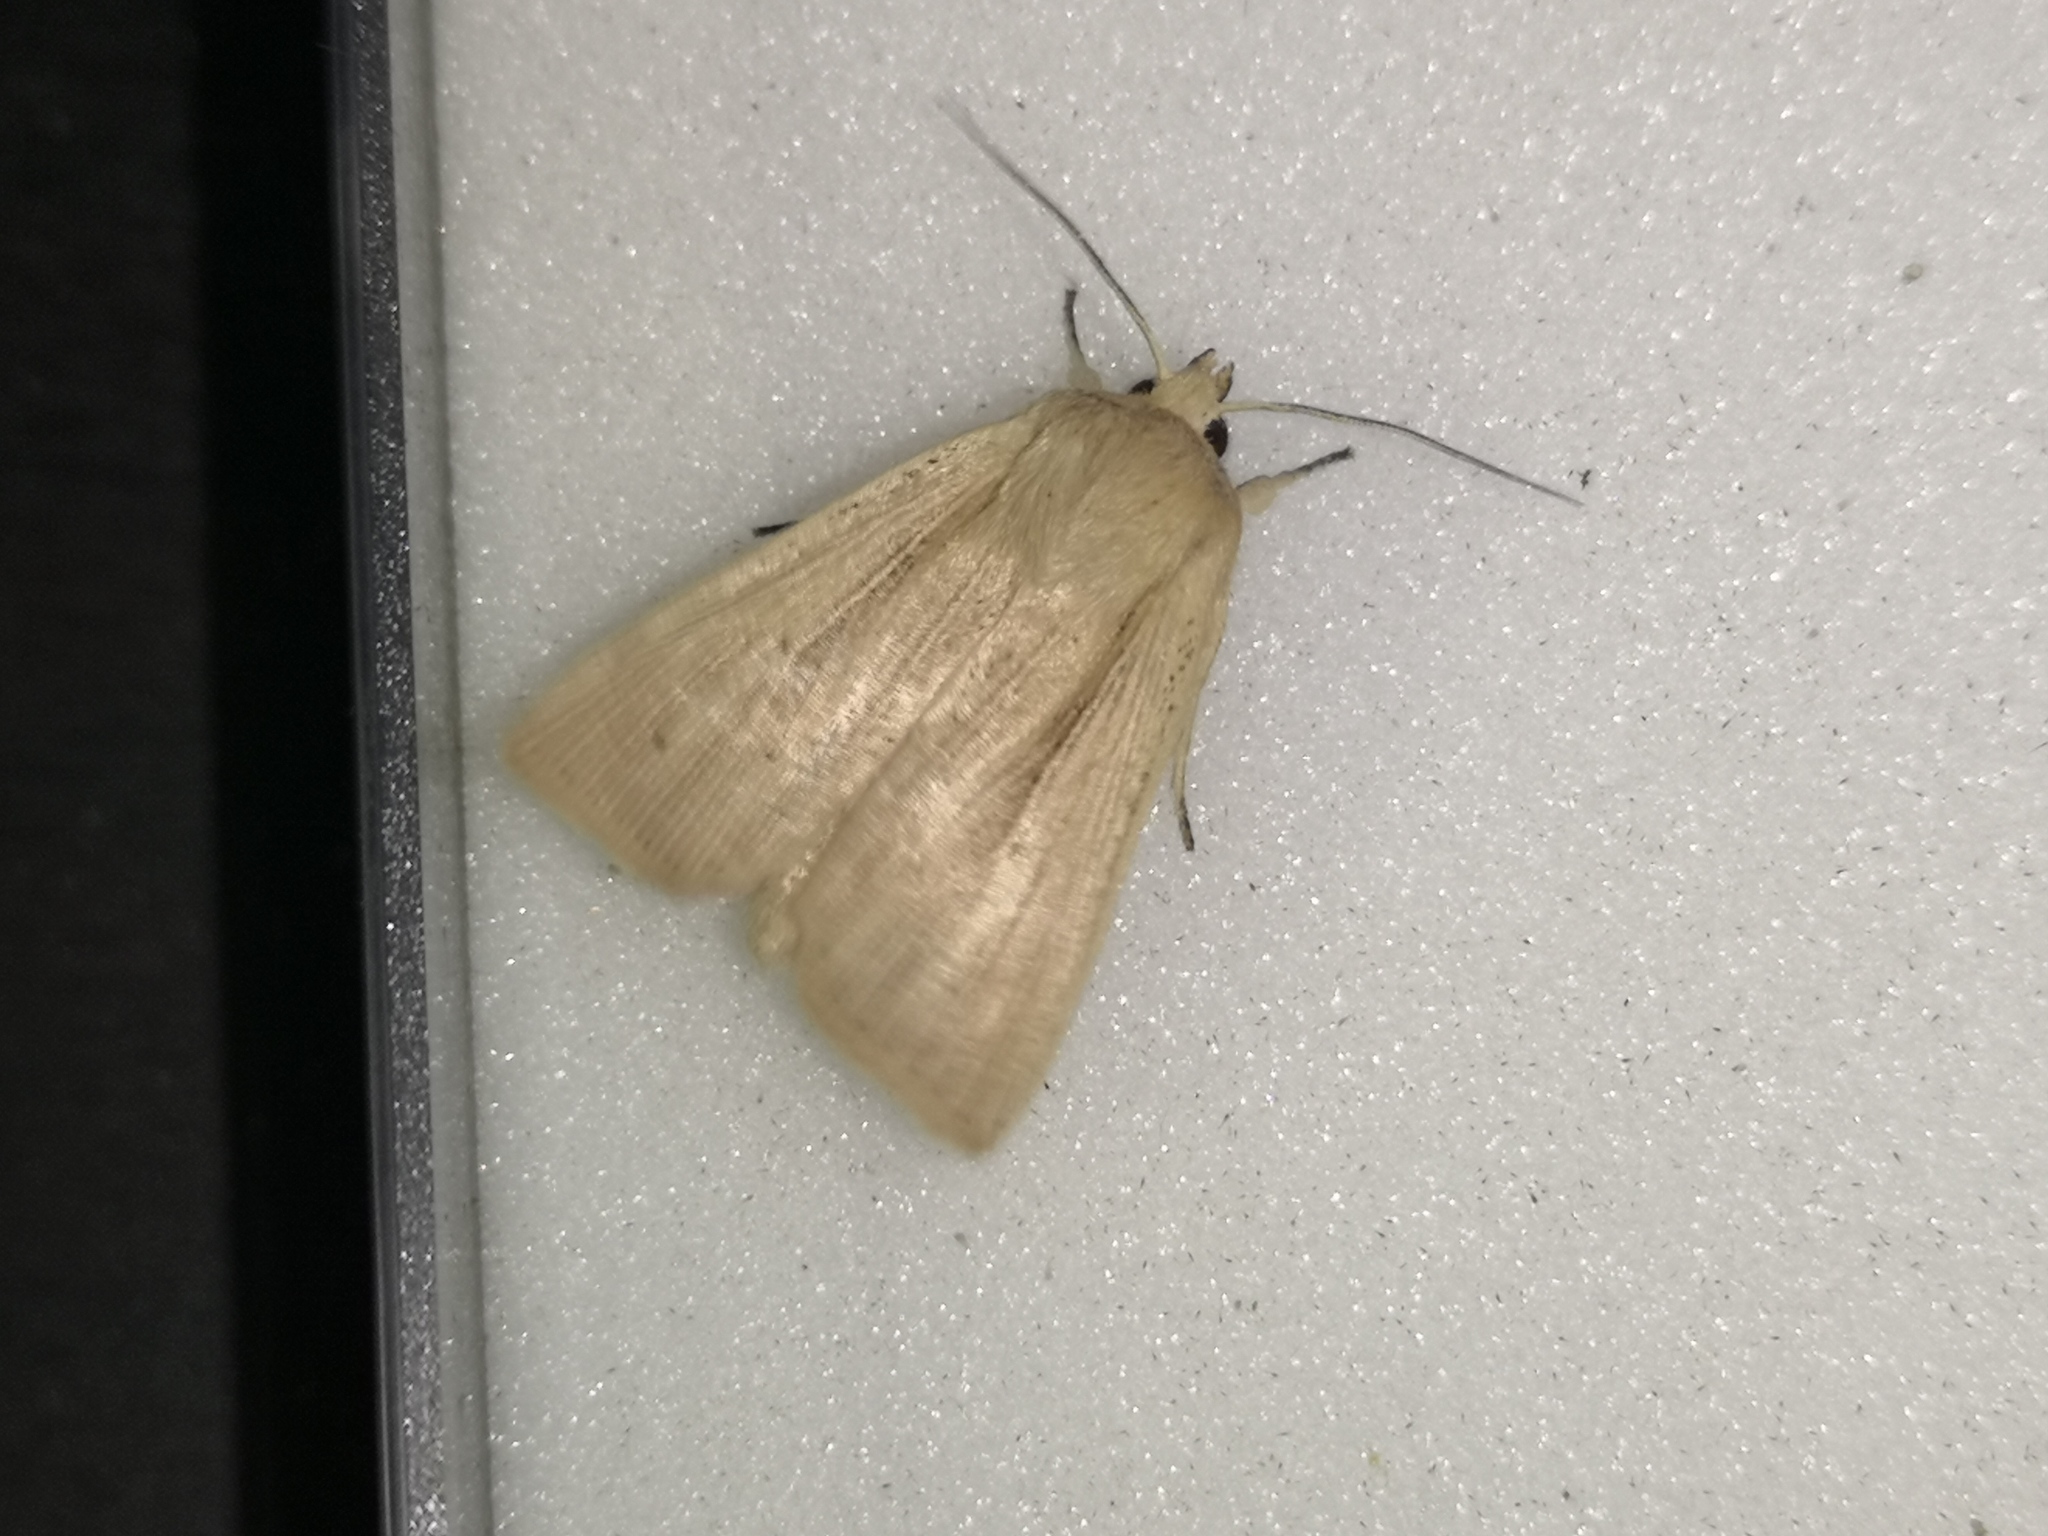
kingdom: Animalia
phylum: Arthropoda
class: Insecta
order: Lepidoptera
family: Noctuidae
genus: Mythimna
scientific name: Mythimna impura
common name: Smoky wainscot
